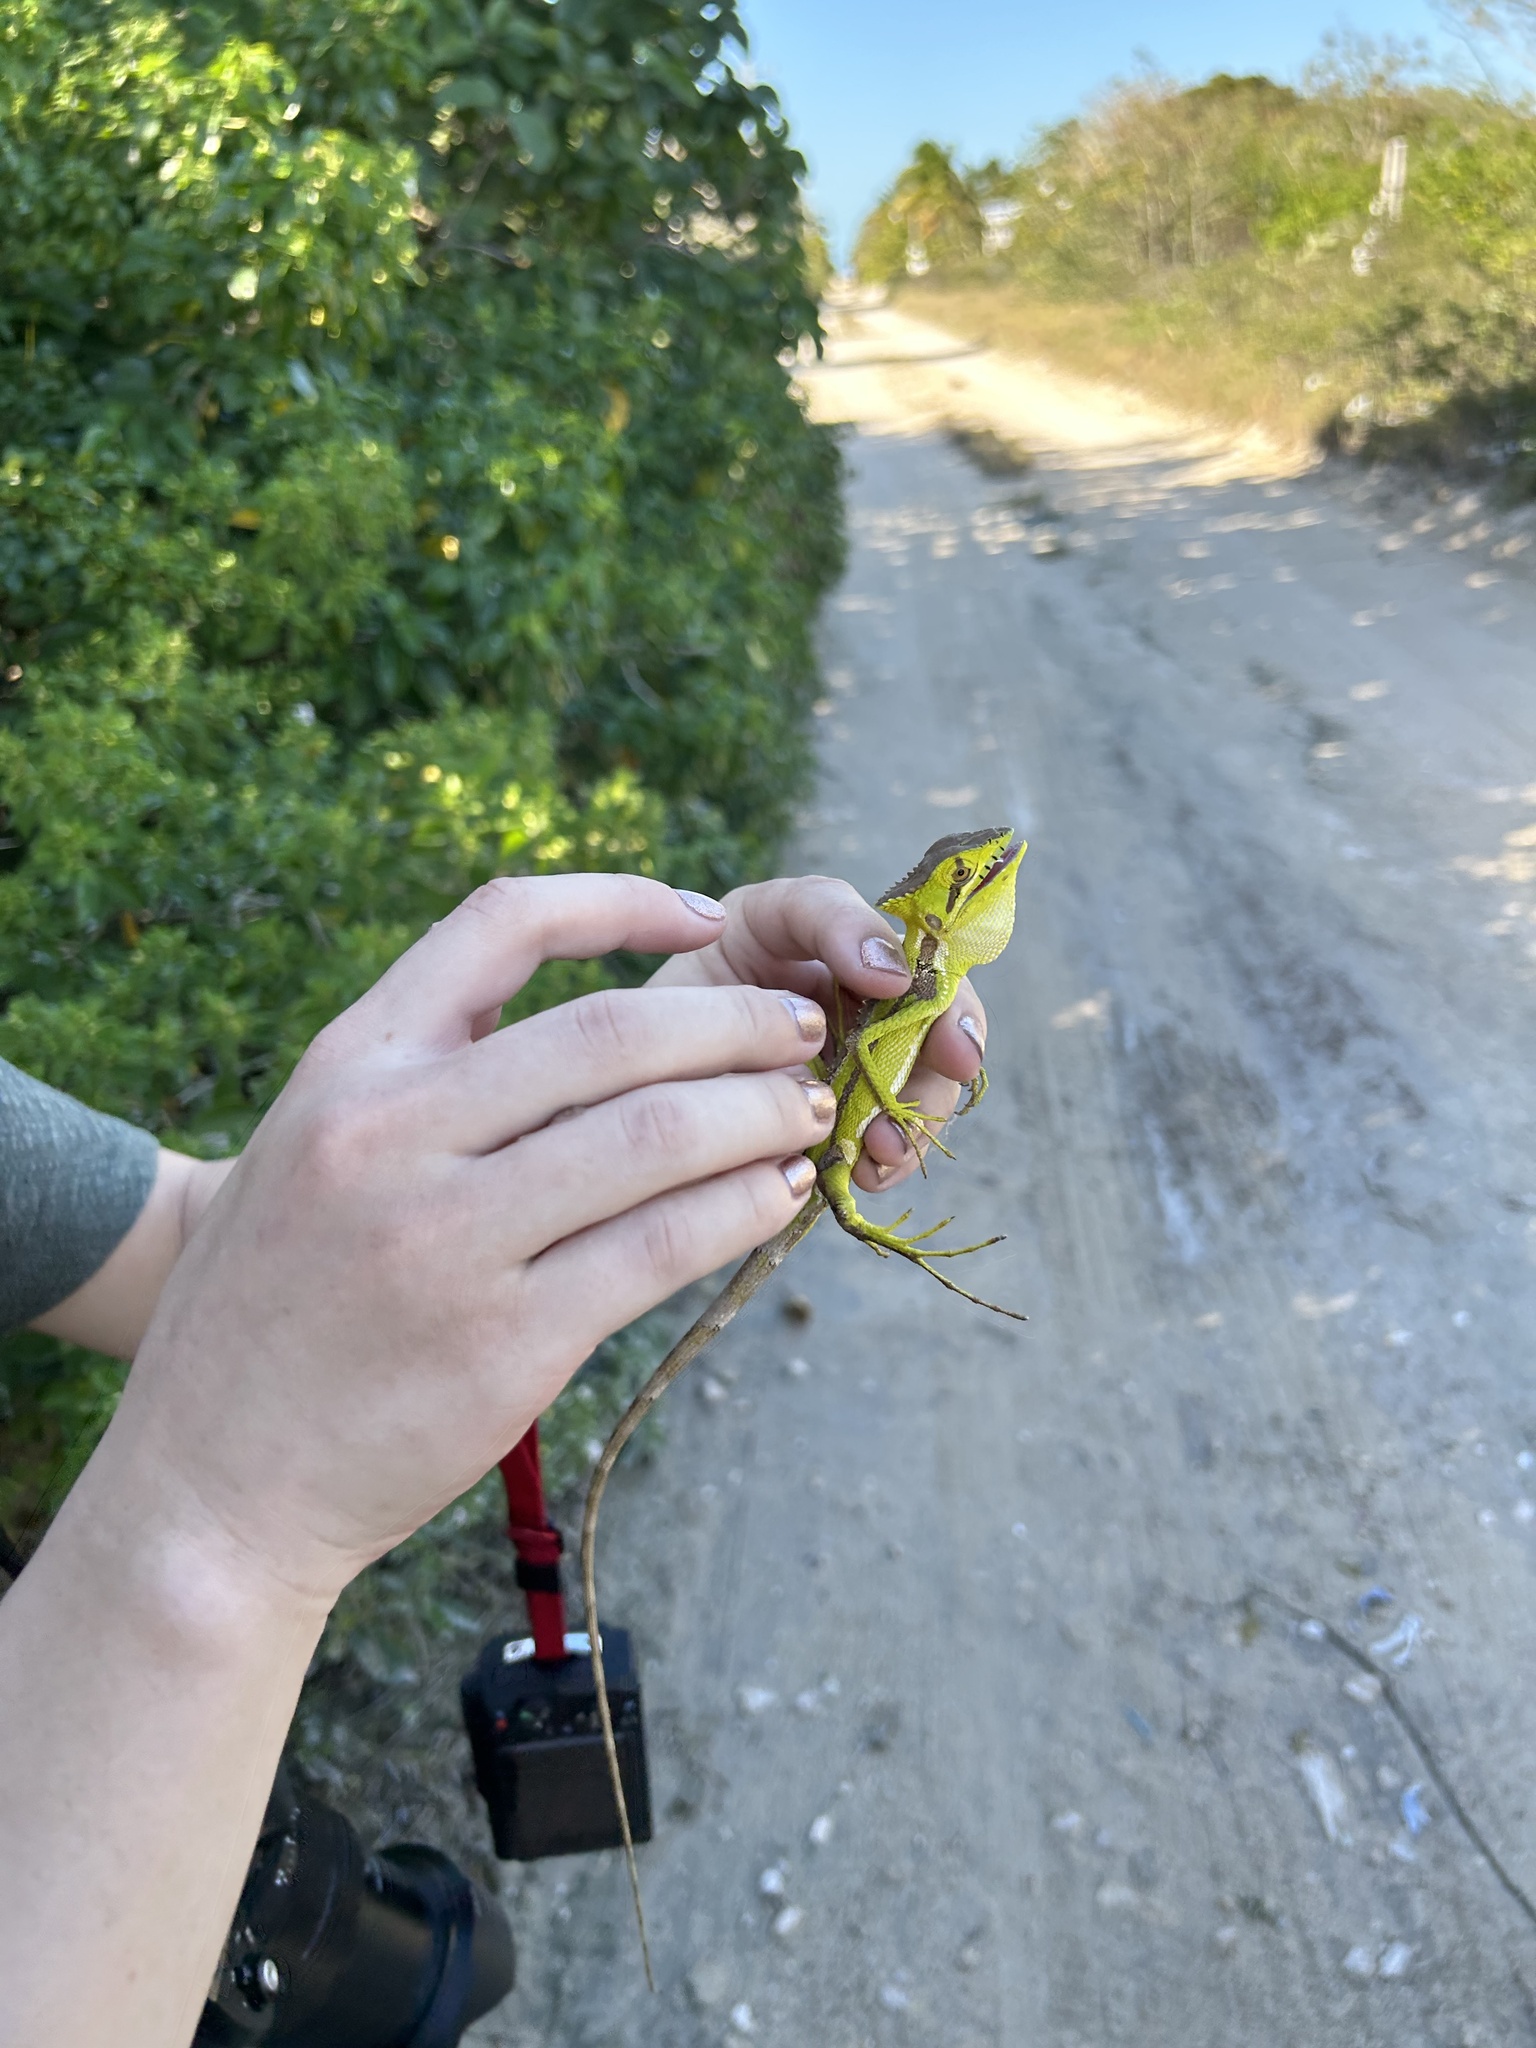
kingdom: Animalia
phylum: Chordata
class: Squamata
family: Corytophanidae
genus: Laemanctus
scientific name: Laemanctus serratus
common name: Serrated casquehead iguana
